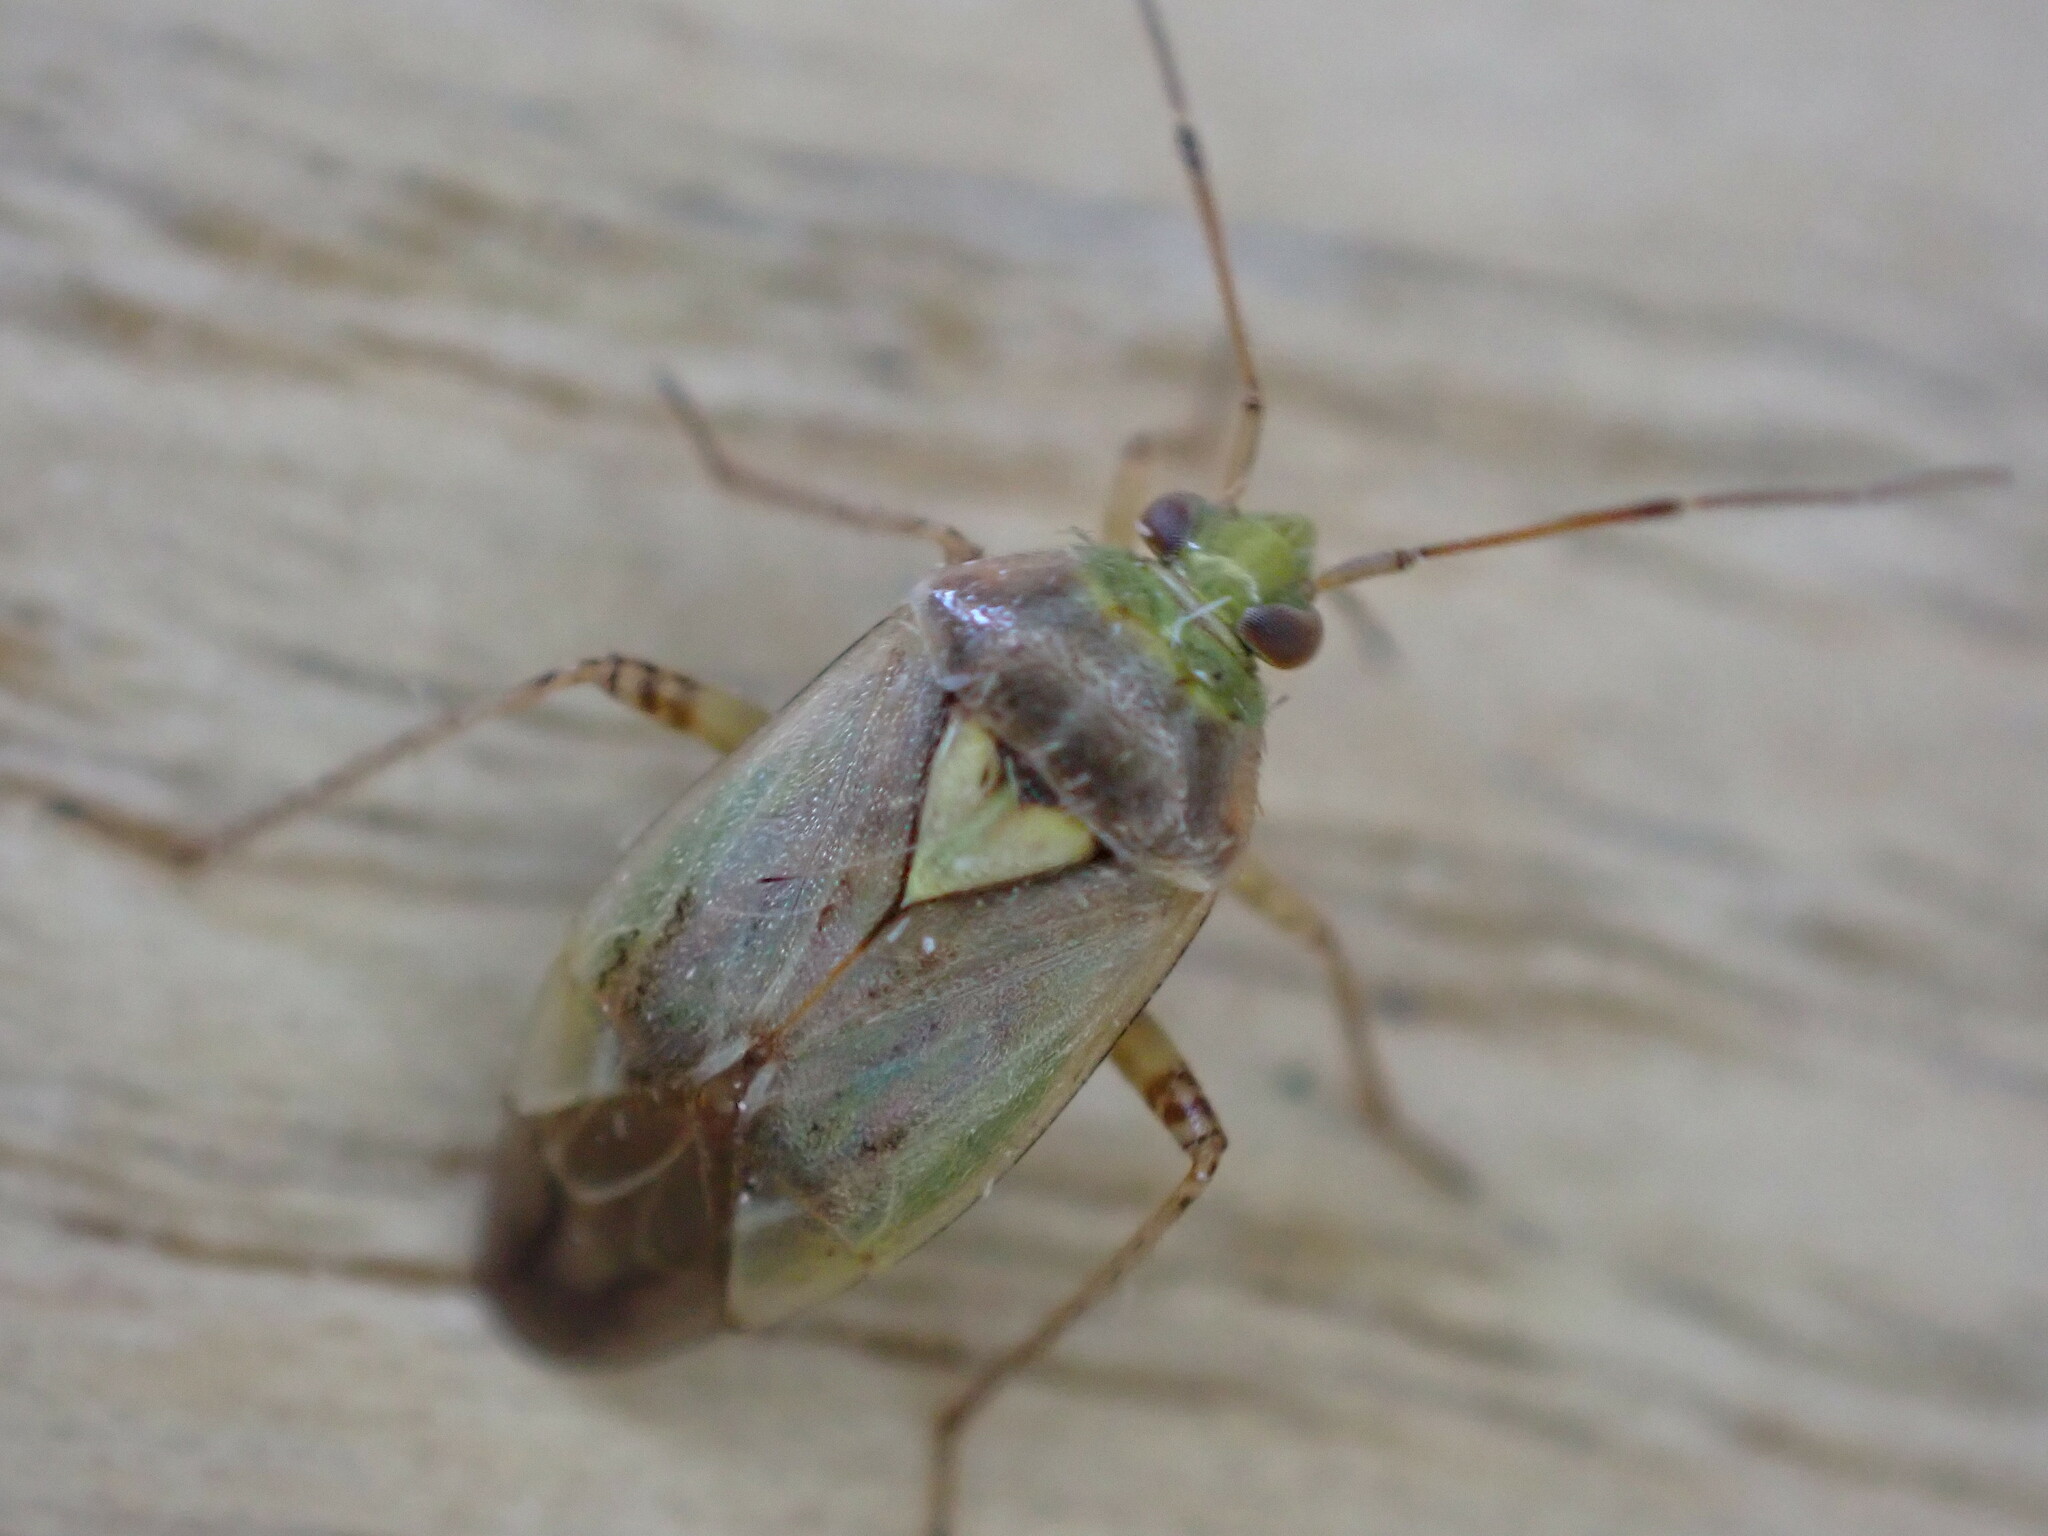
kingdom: Animalia
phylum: Arthropoda
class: Insecta
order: Hemiptera
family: Miridae
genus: Lygus
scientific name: Lygus rugulipennis
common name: European tarnished plant bug
